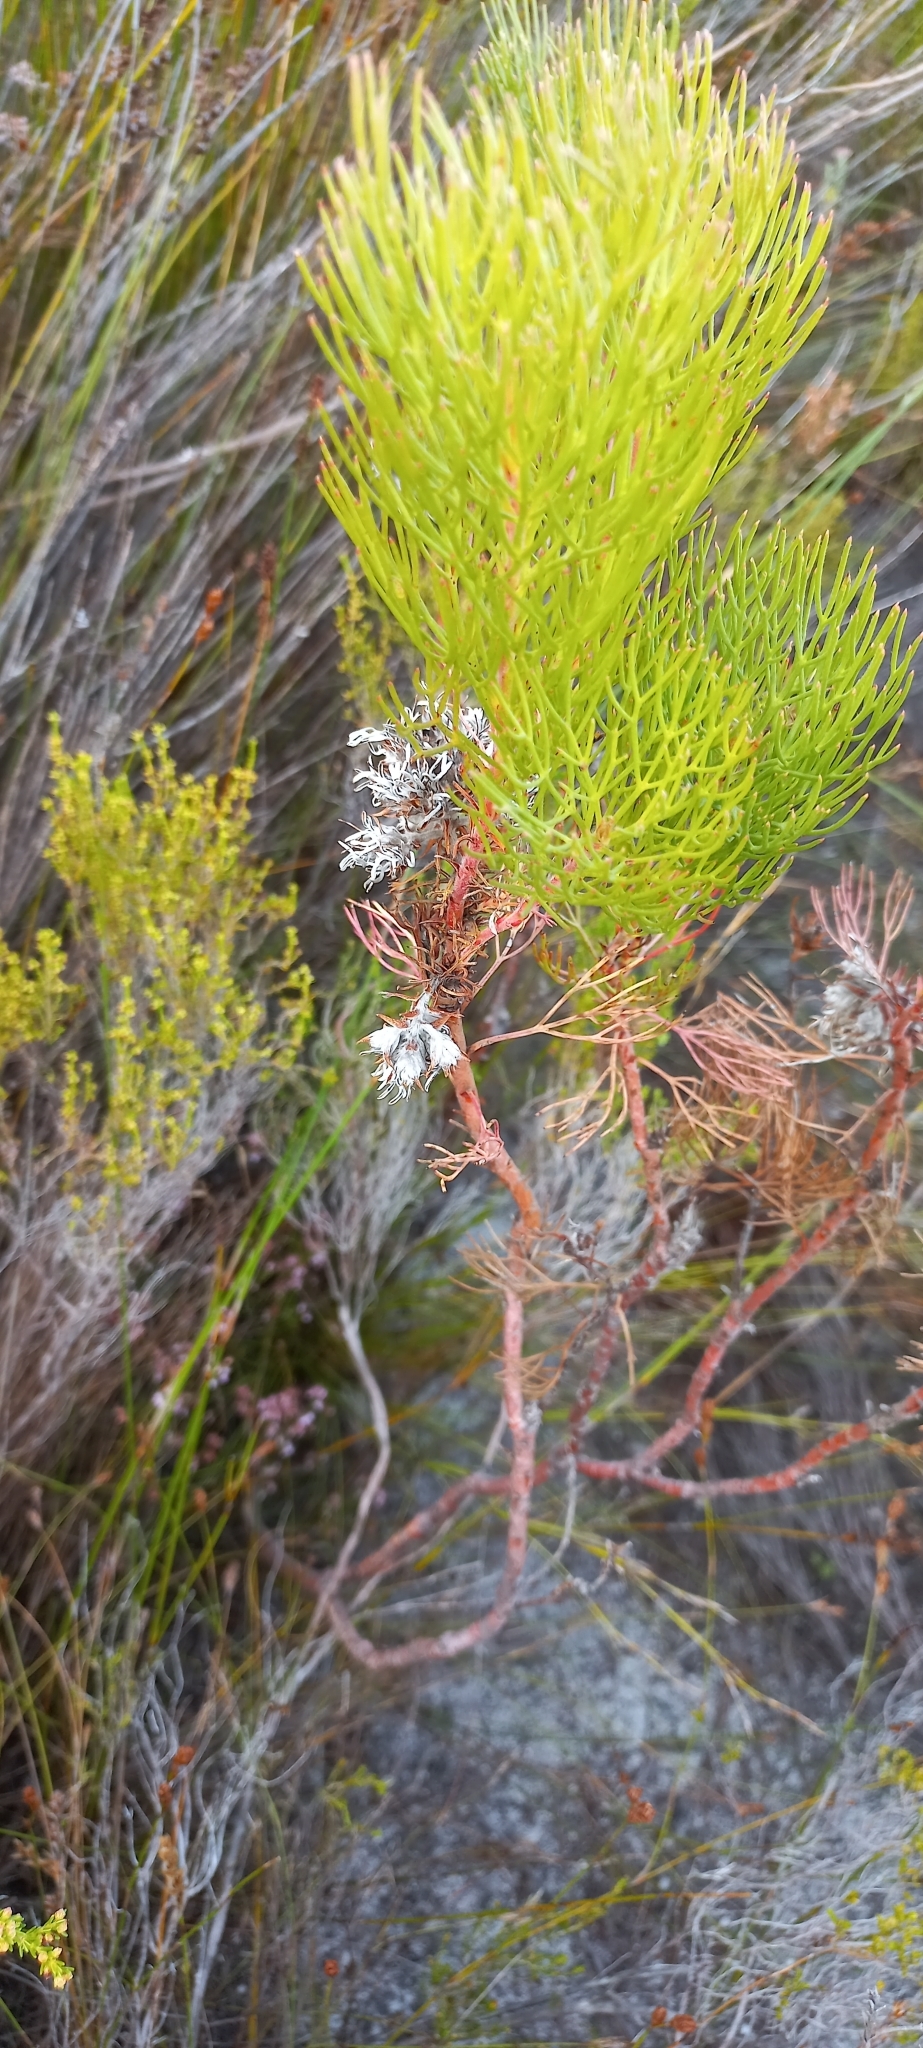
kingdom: Plantae
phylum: Tracheophyta
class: Magnoliopsida
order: Proteales
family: Proteaceae
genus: Serruria
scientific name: Serruria ascendens
